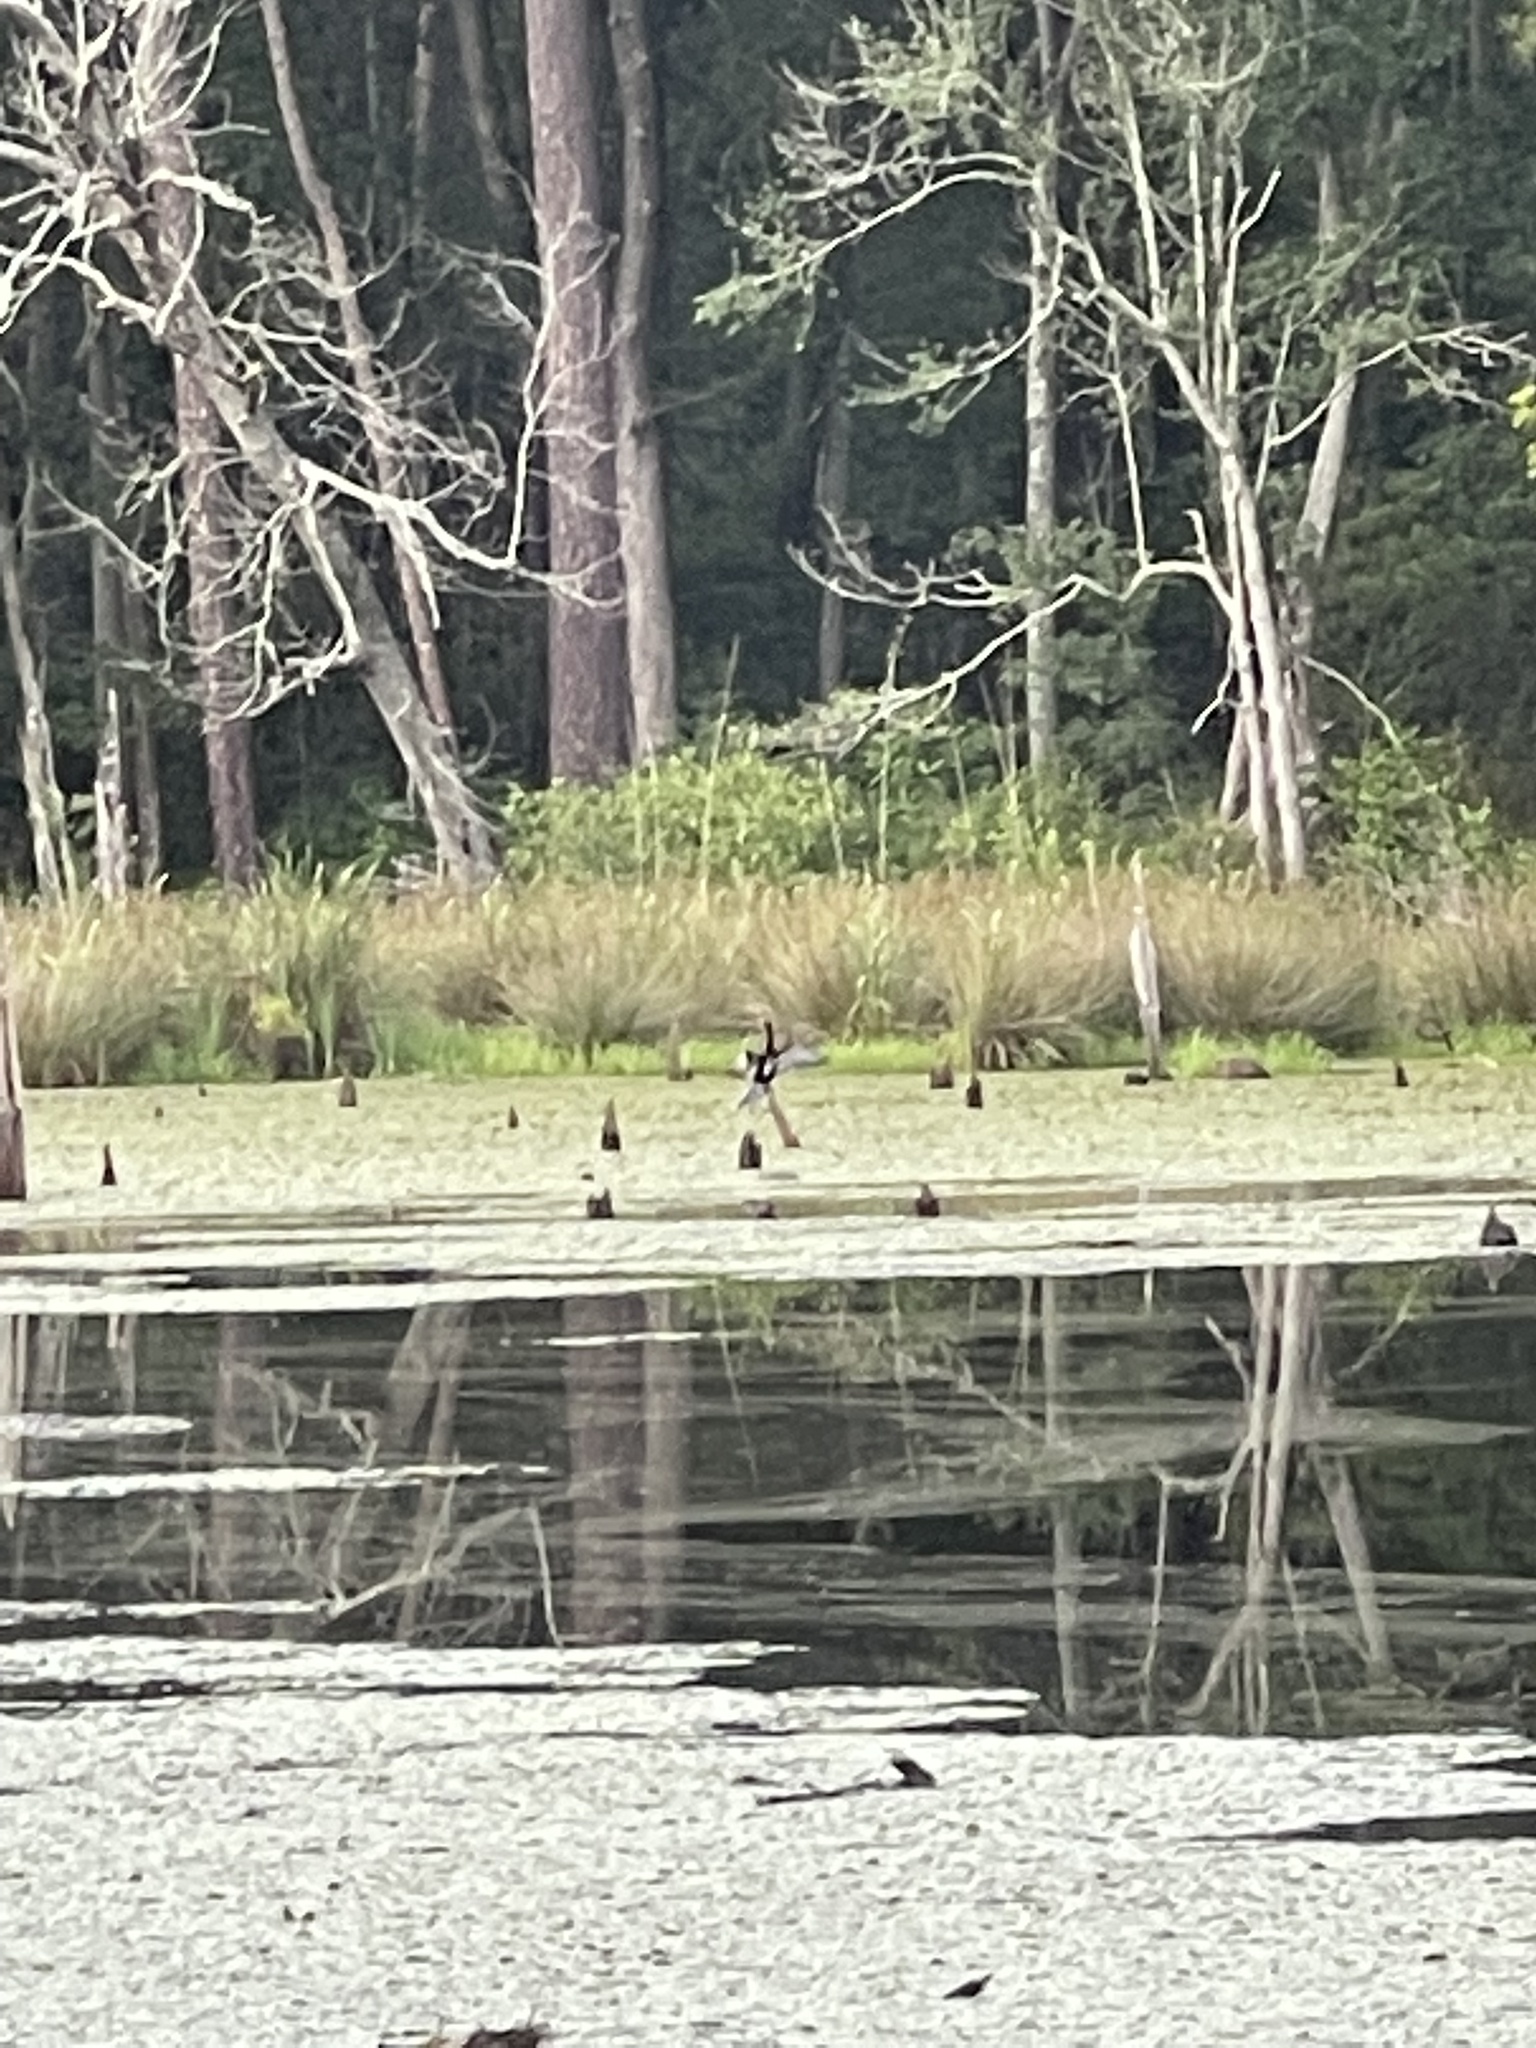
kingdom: Animalia
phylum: Chordata
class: Aves
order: Suliformes
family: Anhingidae
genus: Anhinga
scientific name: Anhinga anhinga
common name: Anhinga
